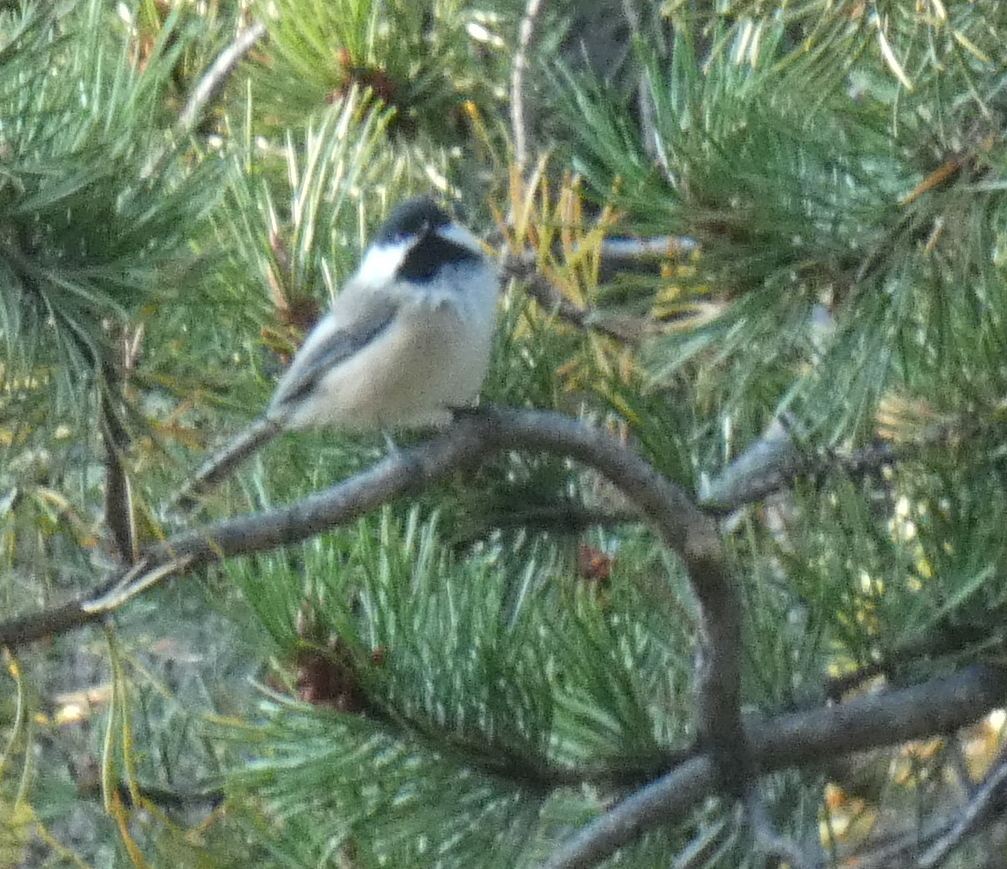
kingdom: Animalia
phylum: Chordata
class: Aves
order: Passeriformes
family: Paridae
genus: Poecile
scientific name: Poecile atricapillus
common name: Black-capped chickadee
